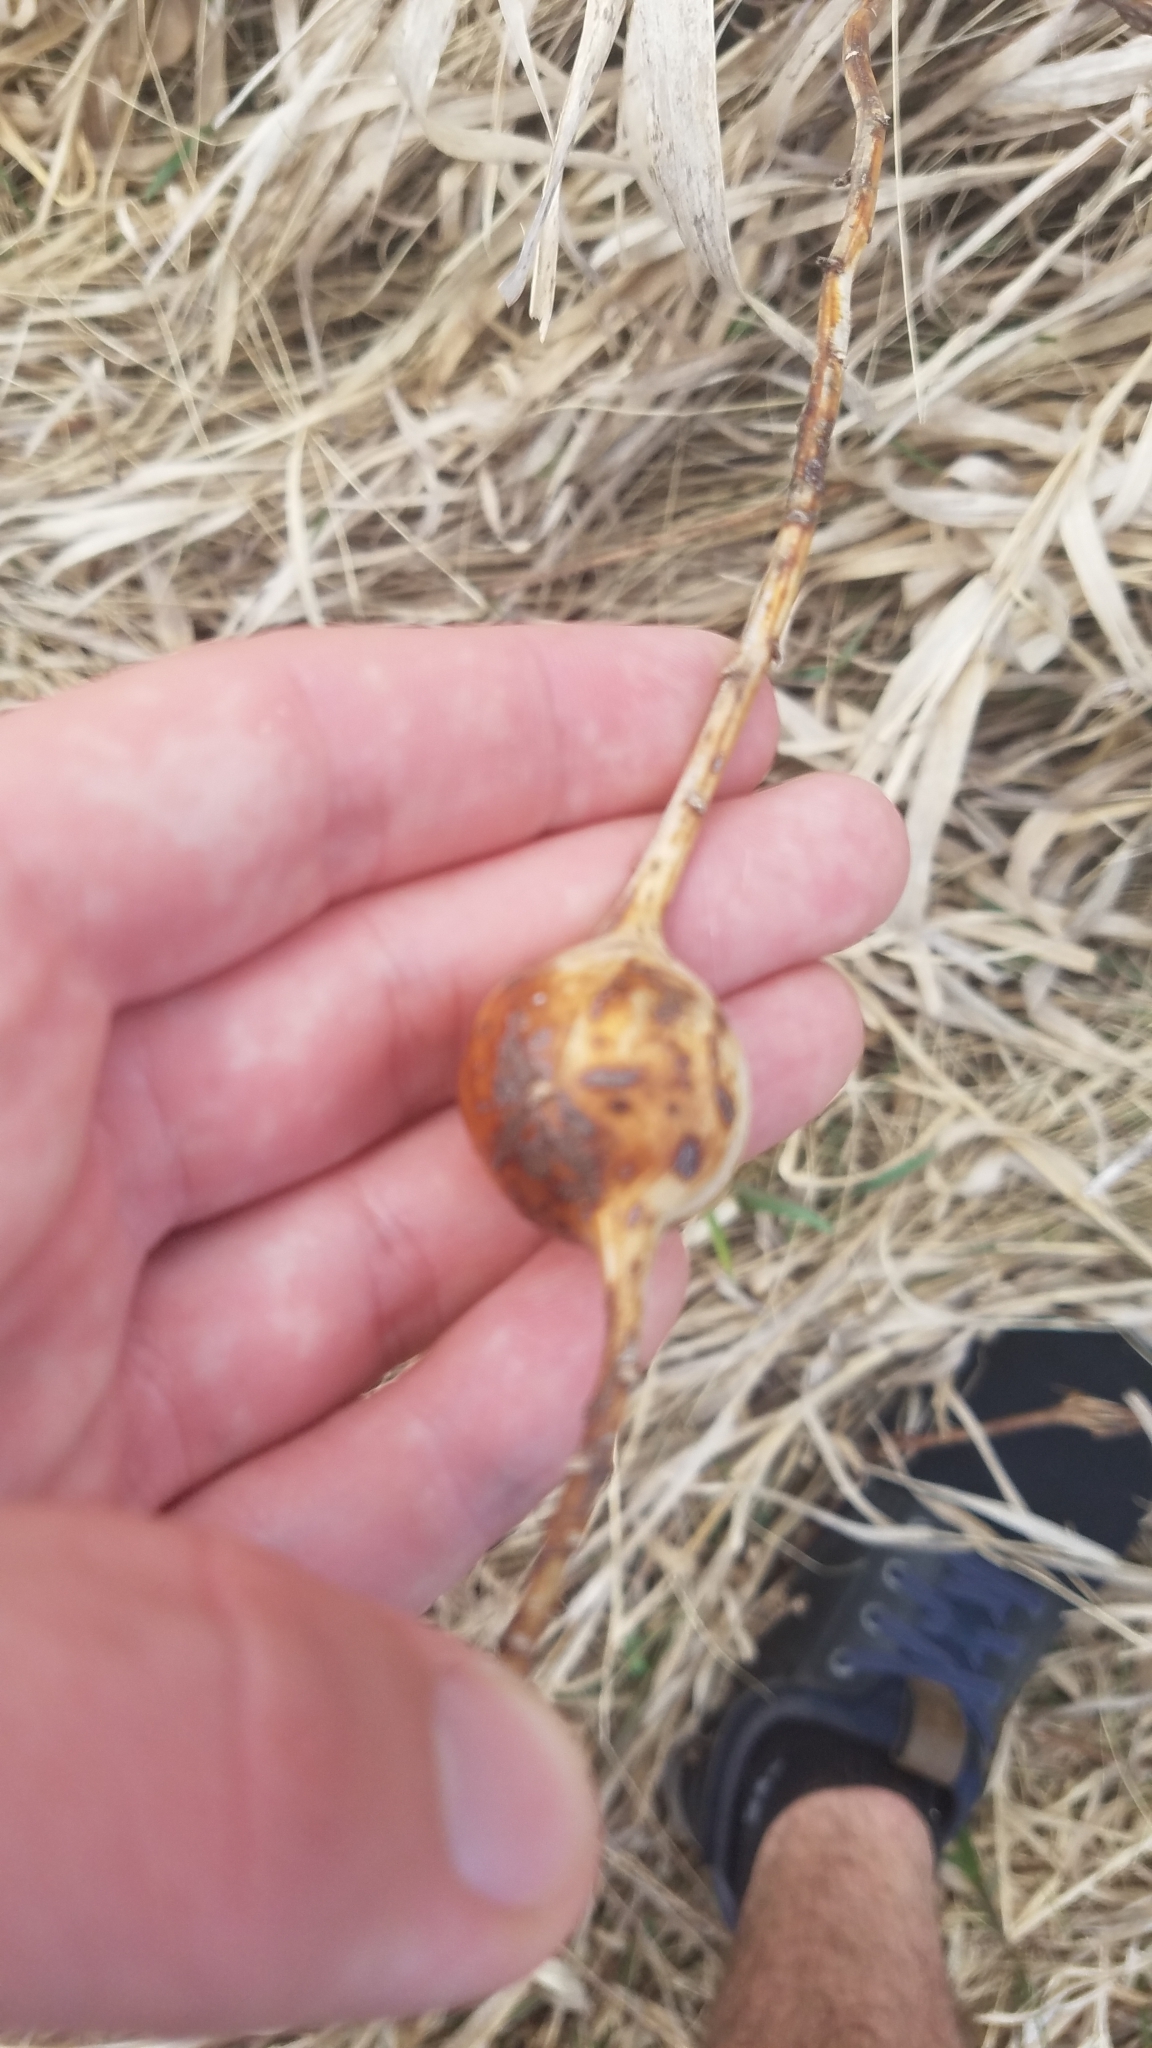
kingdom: Animalia
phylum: Arthropoda
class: Insecta
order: Diptera
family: Tephritidae
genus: Eurosta
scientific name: Eurosta solidaginis
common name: Goldenrod gall fly
